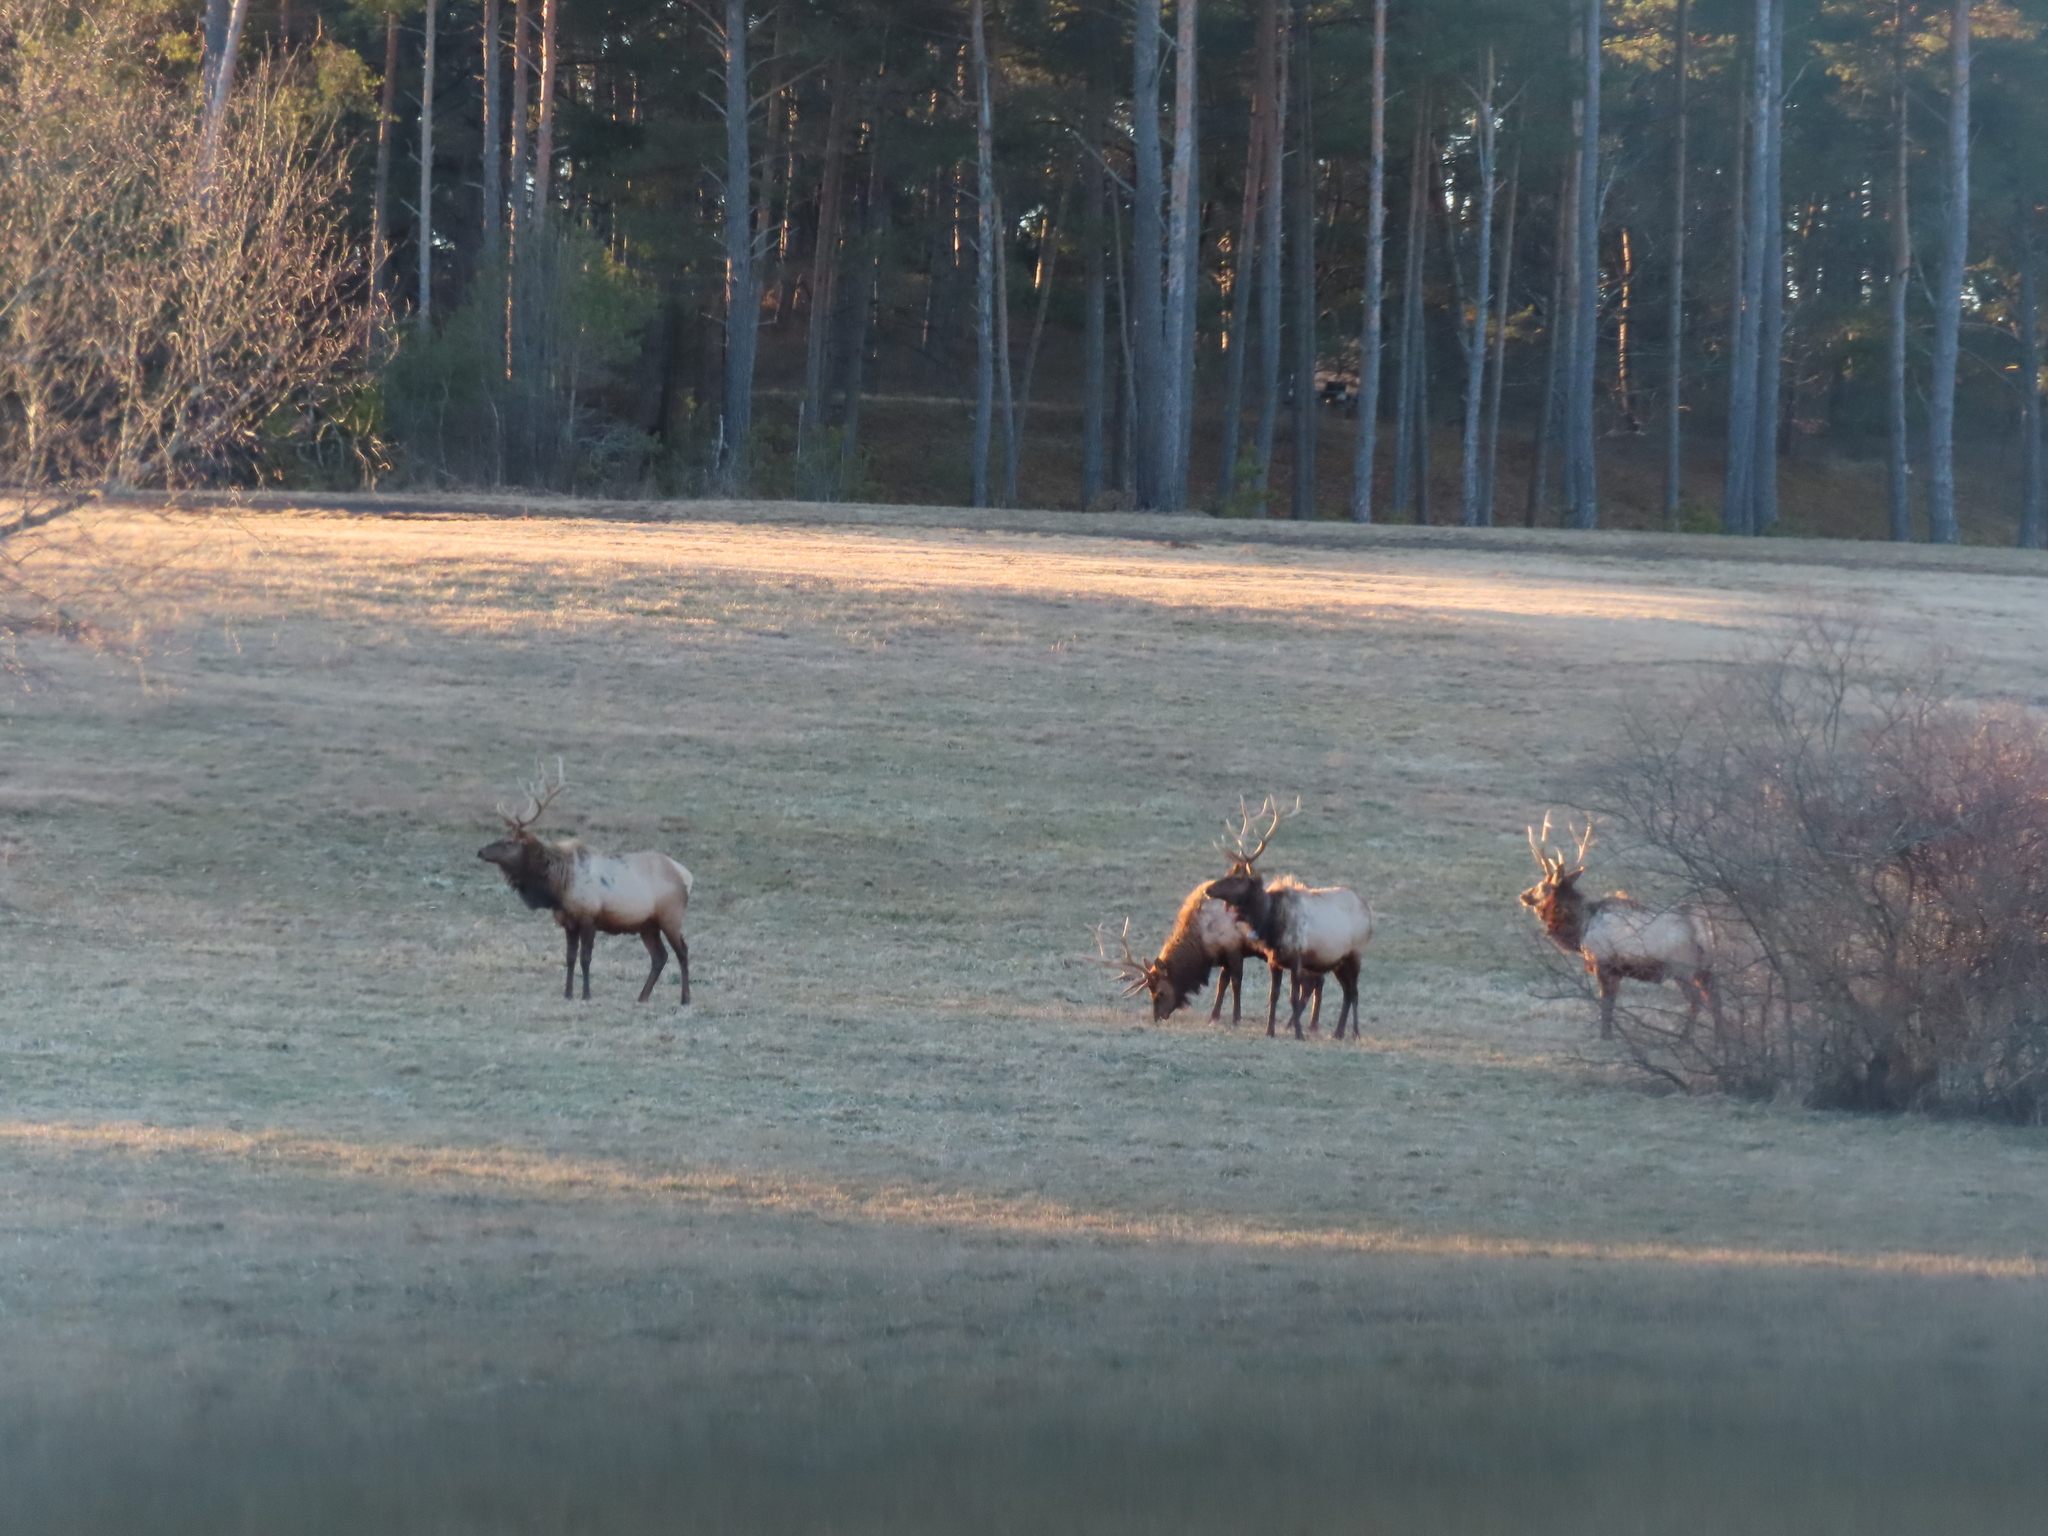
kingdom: Animalia
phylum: Chordata
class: Mammalia
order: Artiodactyla
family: Cervidae
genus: Cervus
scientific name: Cervus elaphus
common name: Red deer
